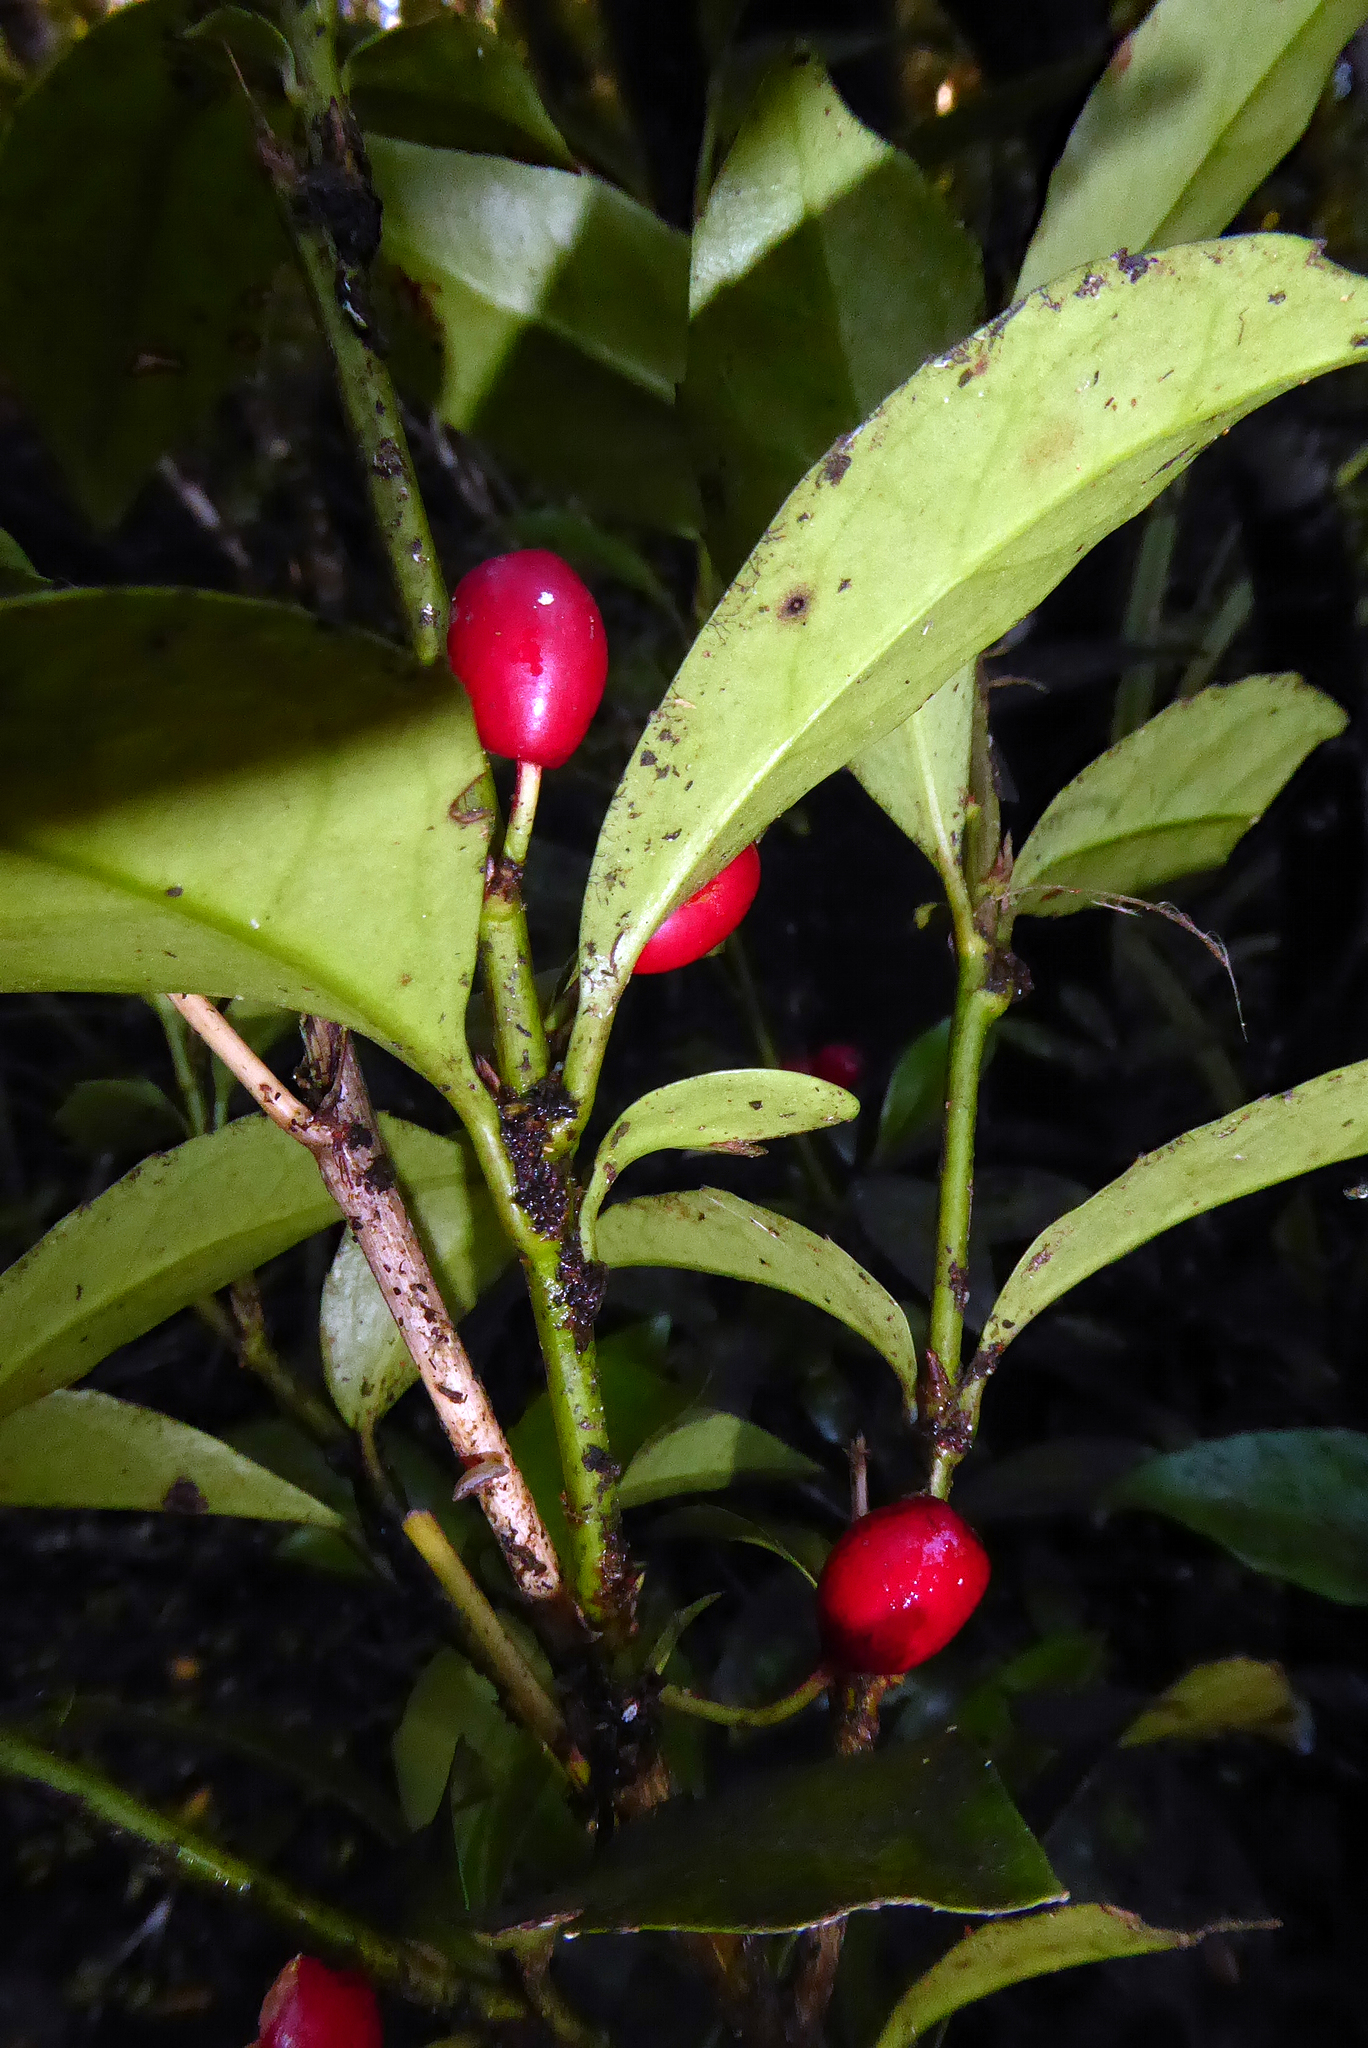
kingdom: Plantae
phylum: Tracheophyta
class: Magnoliopsida
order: Asterales
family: Alseuosmiaceae
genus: Alseuosmia
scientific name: Alseuosmia turneri
